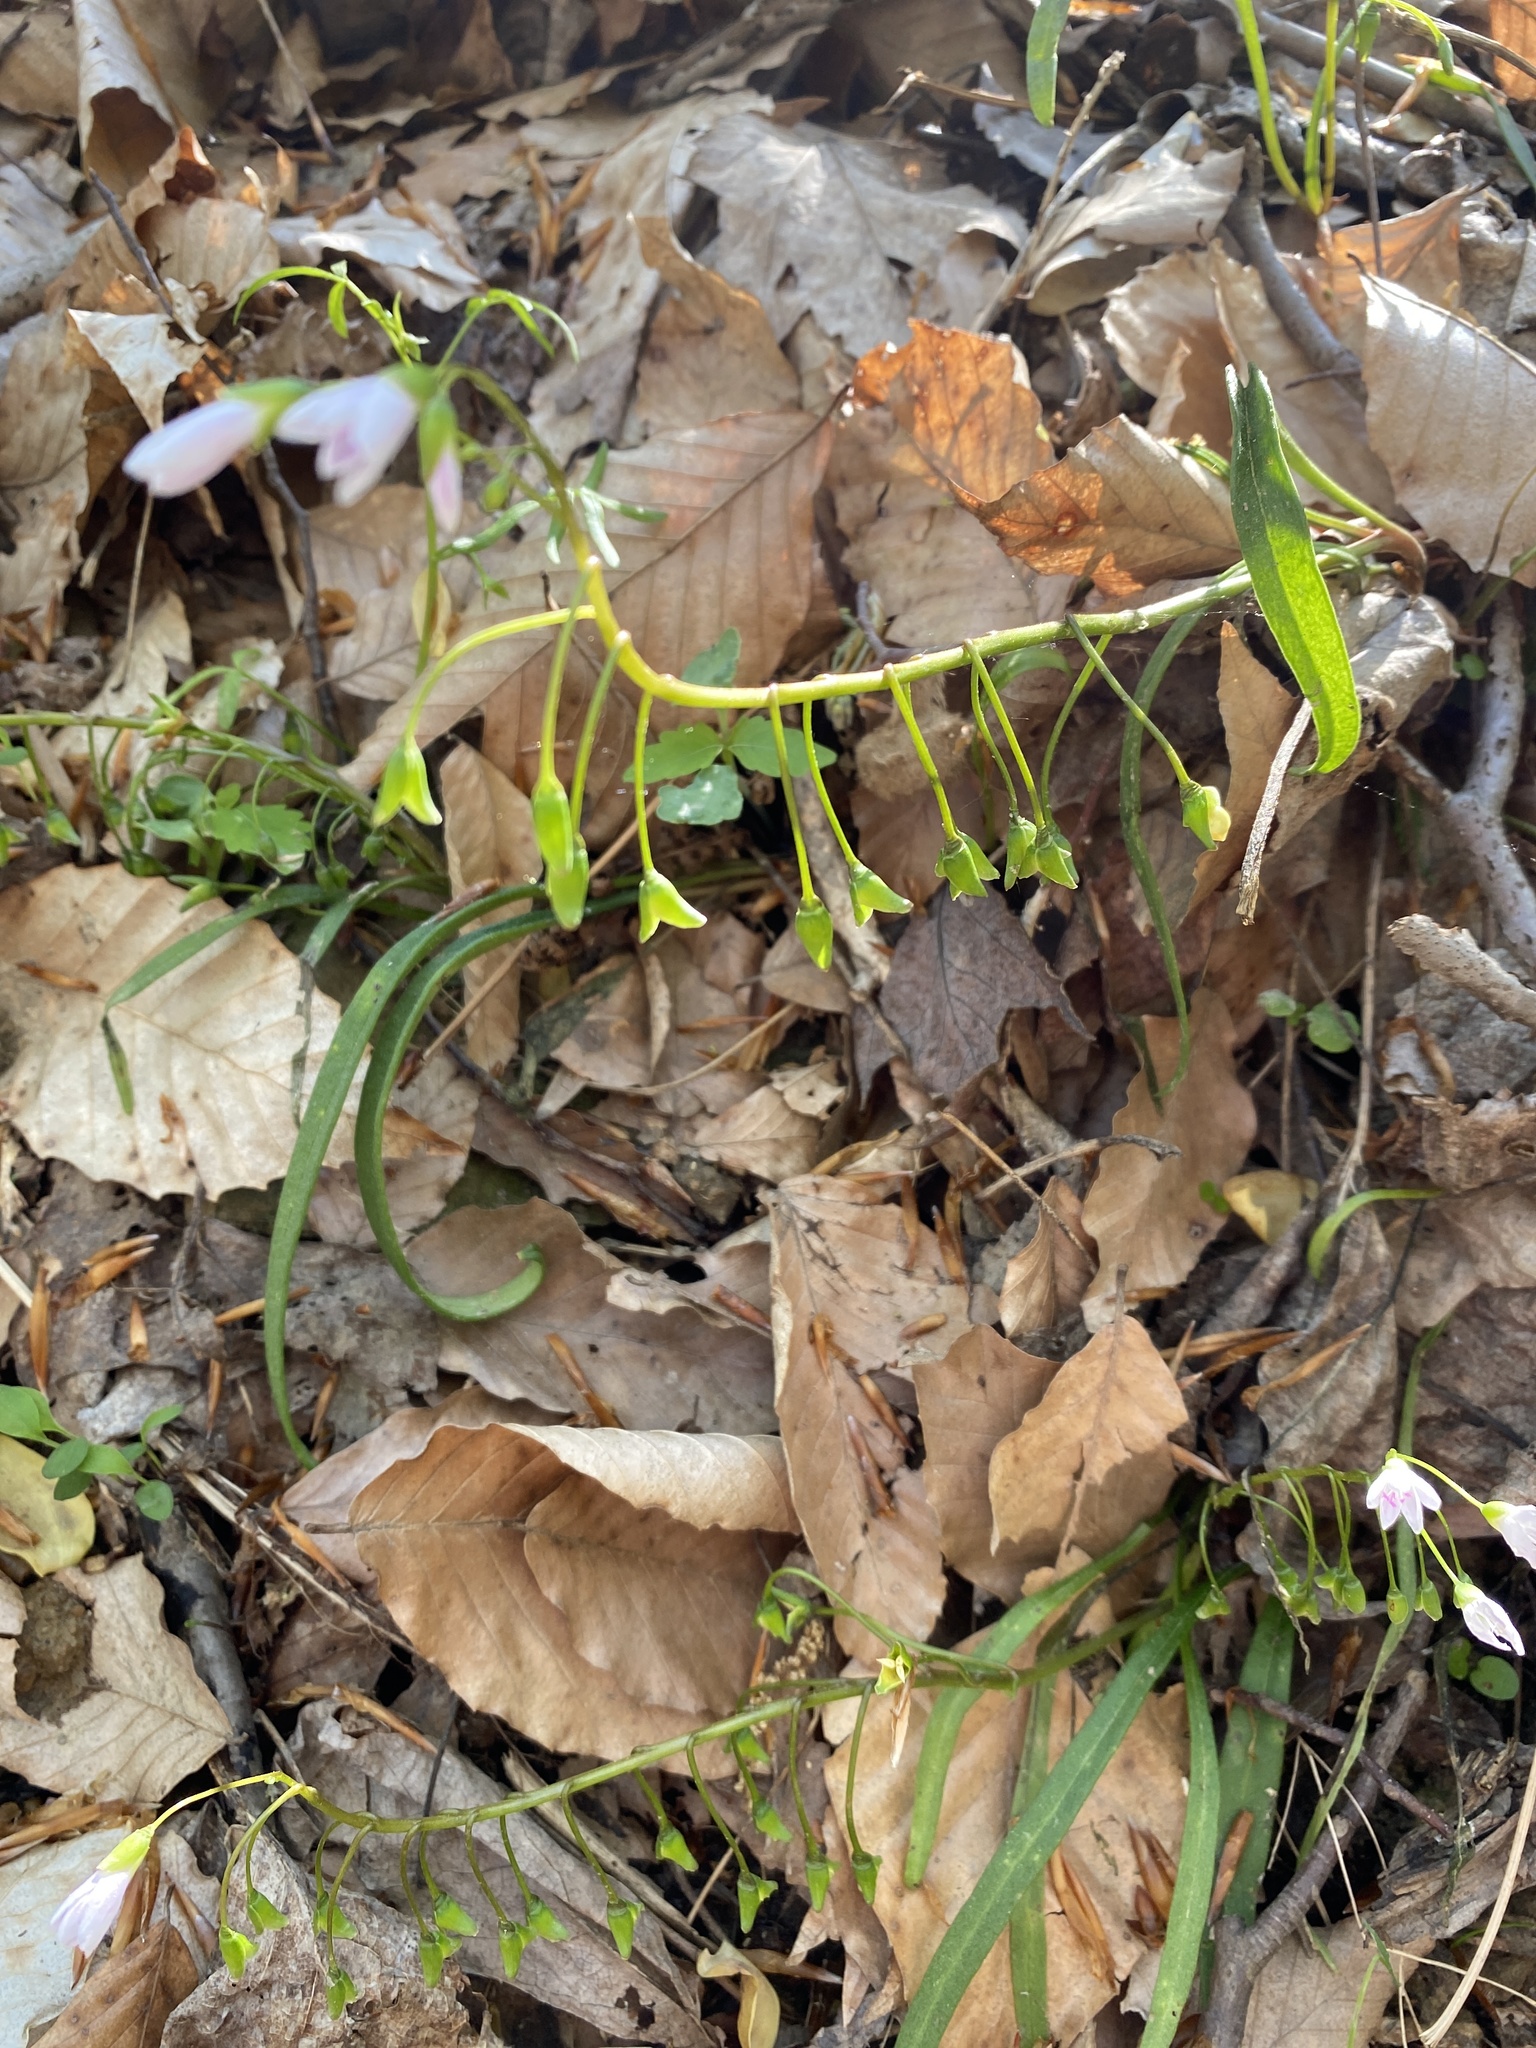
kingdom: Plantae
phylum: Tracheophyta
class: Magnoliopsida
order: Caryophyllales
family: Montiaceae
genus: Claytonia
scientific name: Claytonia virginica
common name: Virginia springbeauty
